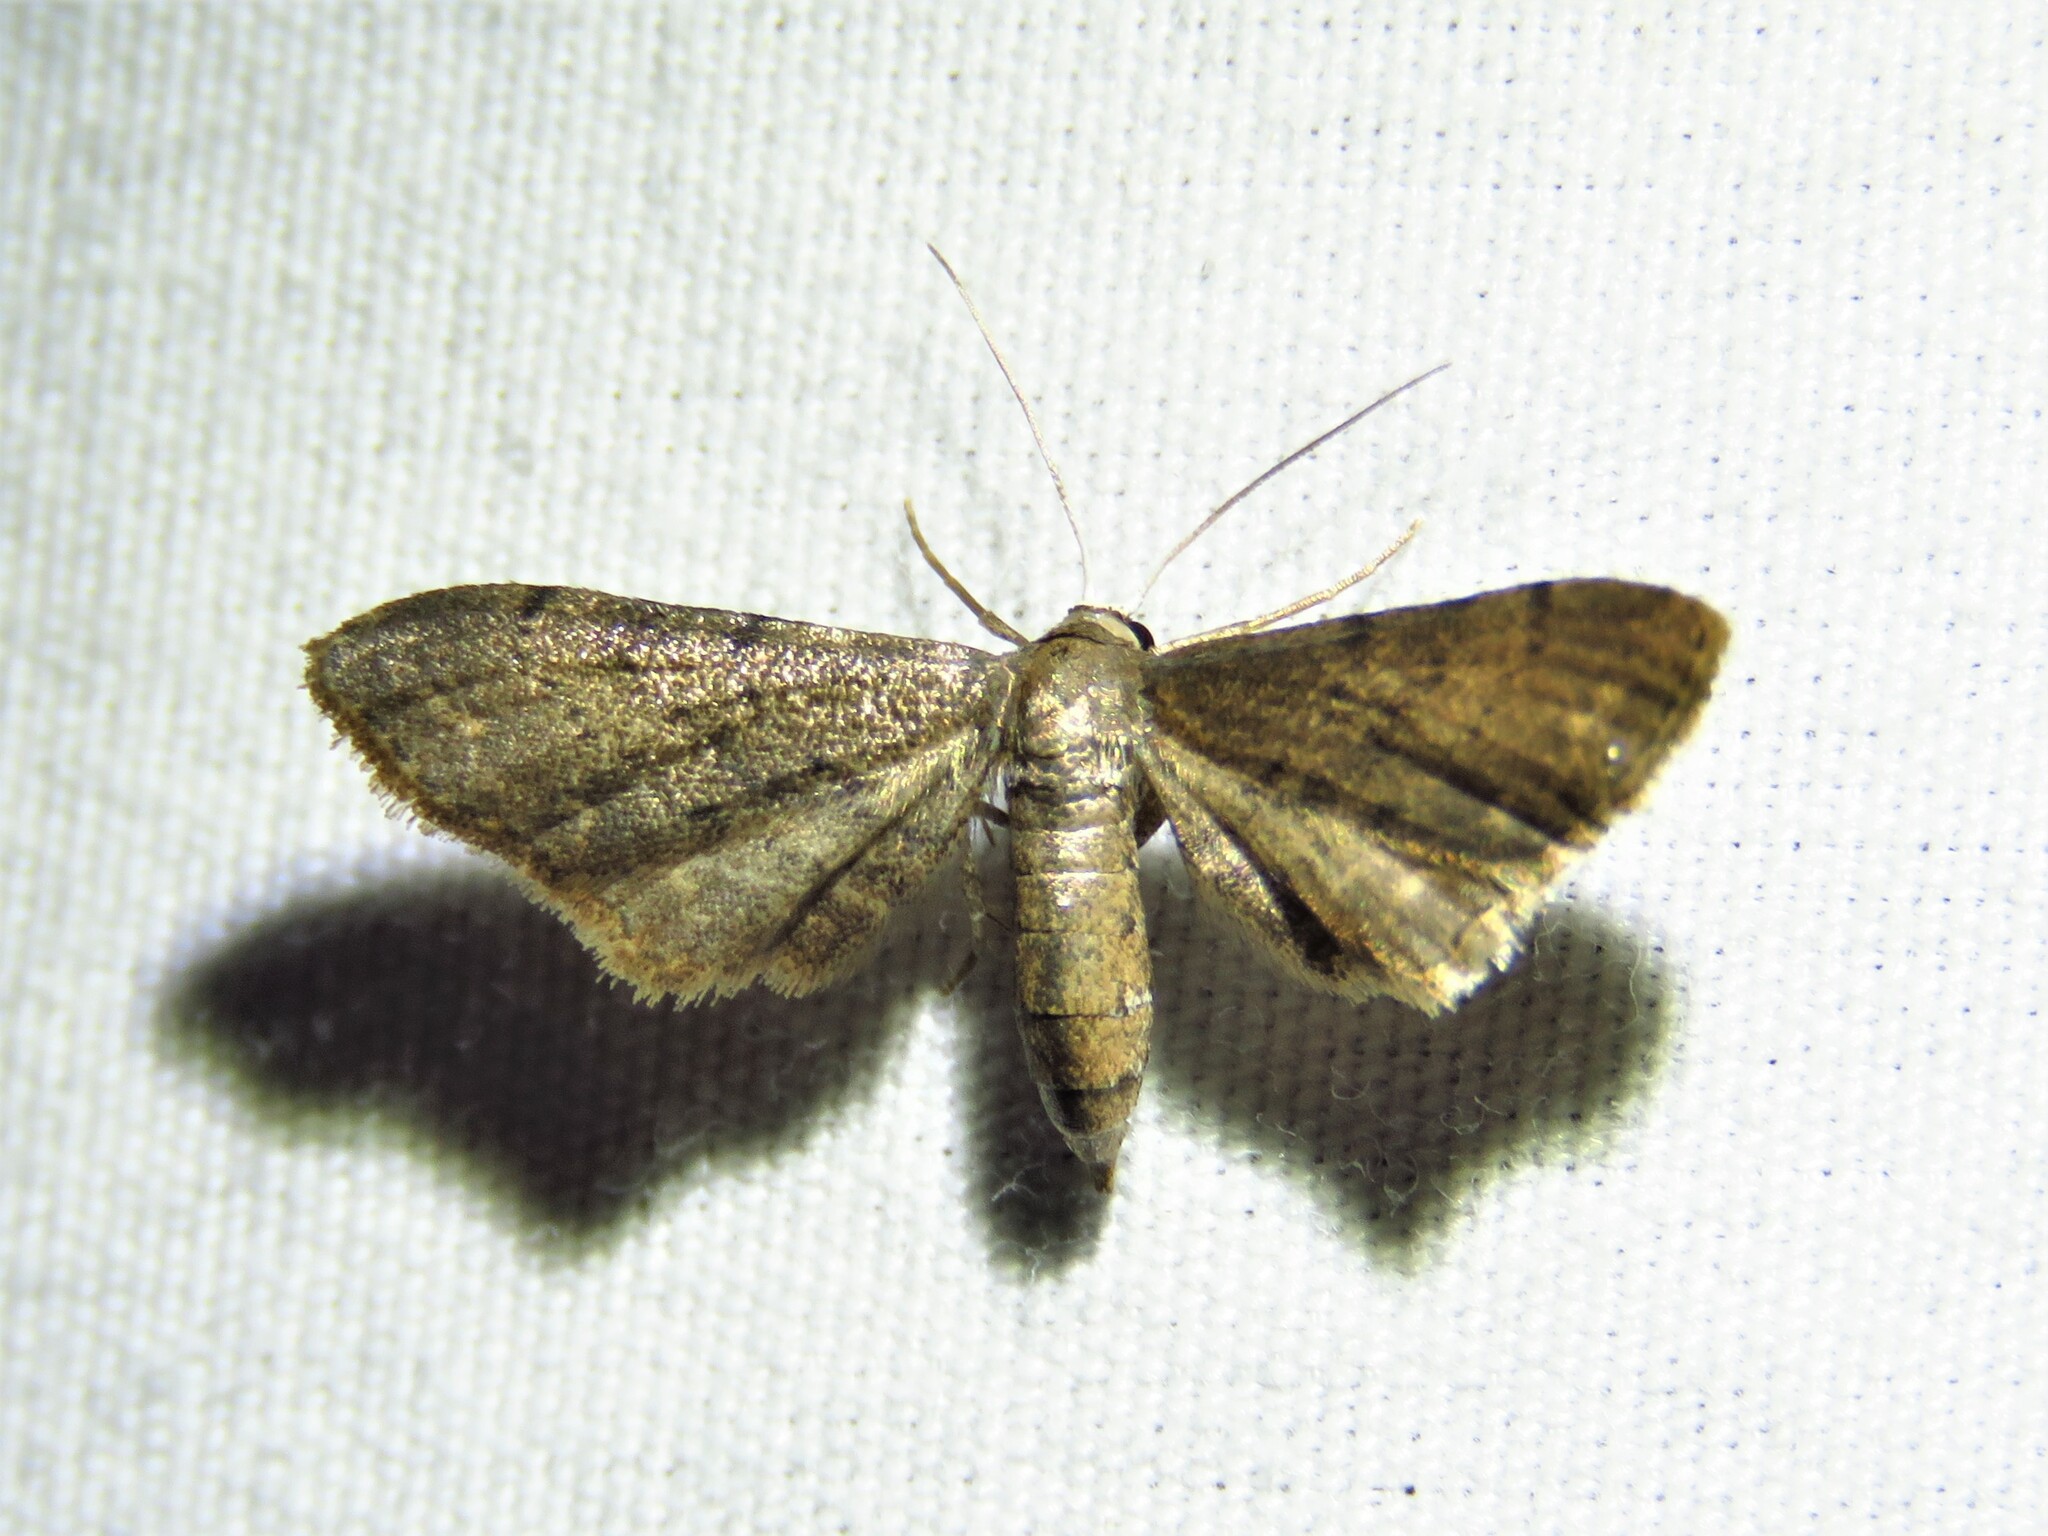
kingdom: Animalia
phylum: Arthropoda
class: Insecta
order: Lepidoptera
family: Geometridae
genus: Protoproutia
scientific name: Protoproutia laredoata
